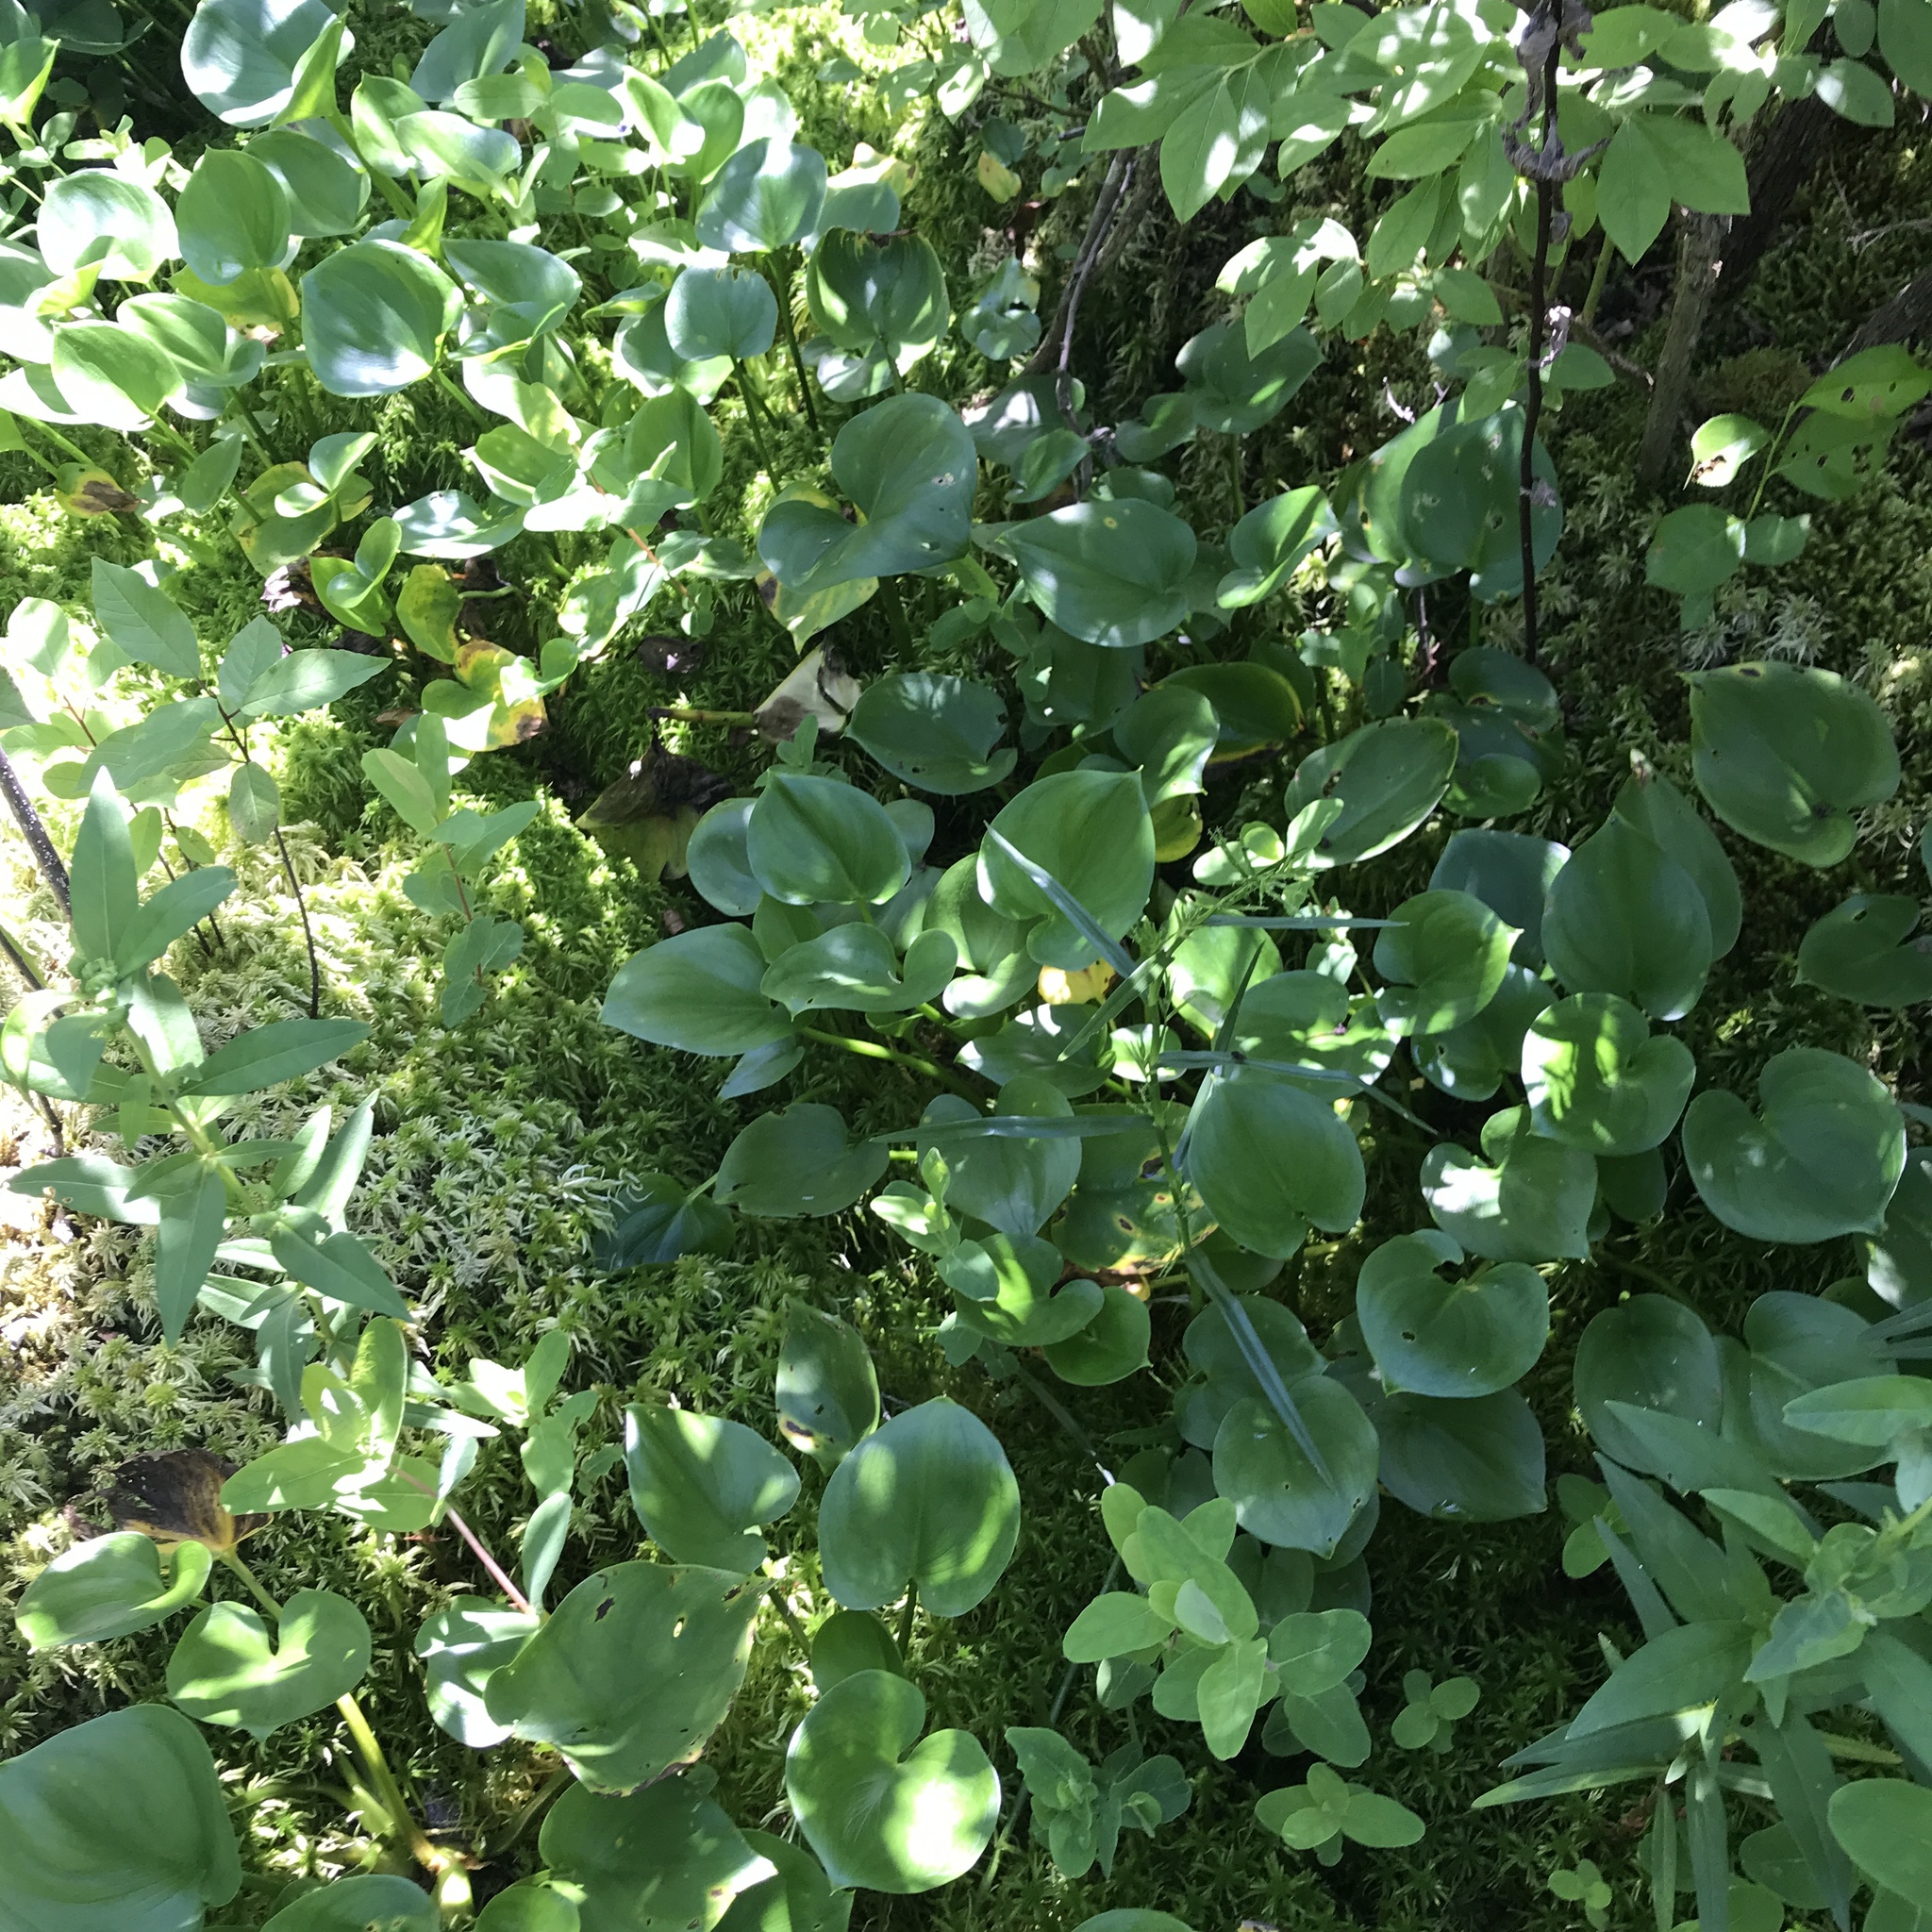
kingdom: Plantae
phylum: Tracheophyta
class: Liliopsida
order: Alismatales
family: Araceae
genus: Calla
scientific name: Calla palustris
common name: Bog arum
